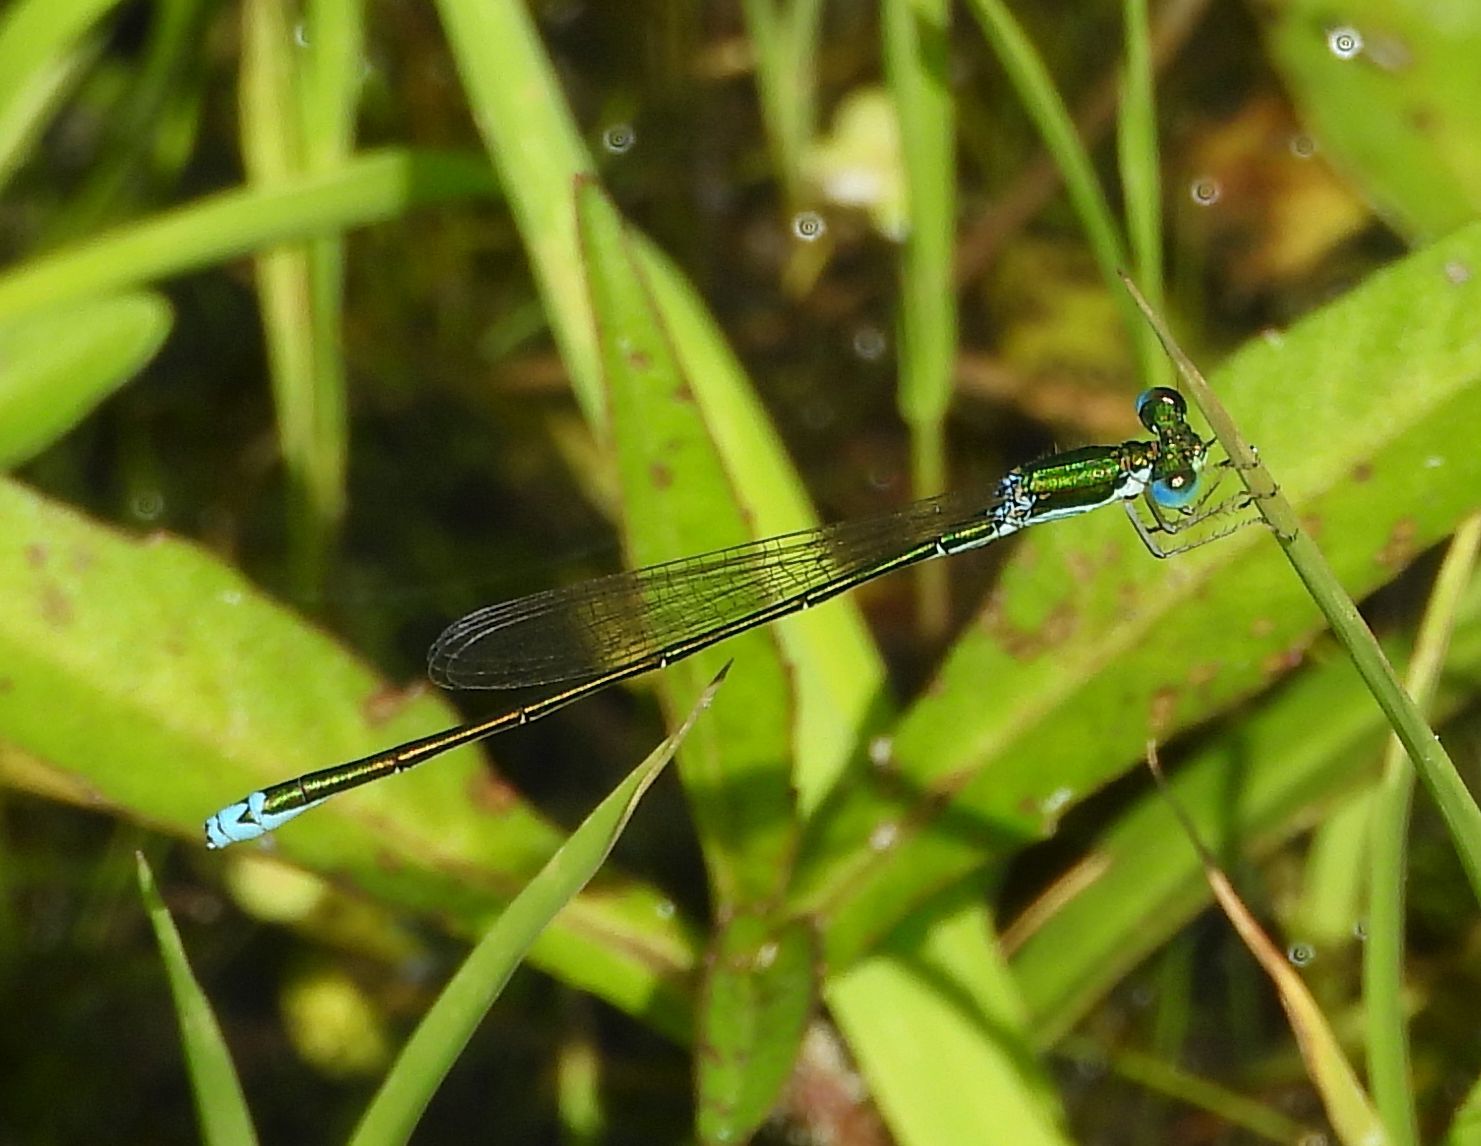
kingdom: Animalia
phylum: Arthropoda
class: Insecta
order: Odonata
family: Coenagrionidae
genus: Nehalennia
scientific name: Nehalennia irene
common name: Sedge sprite
